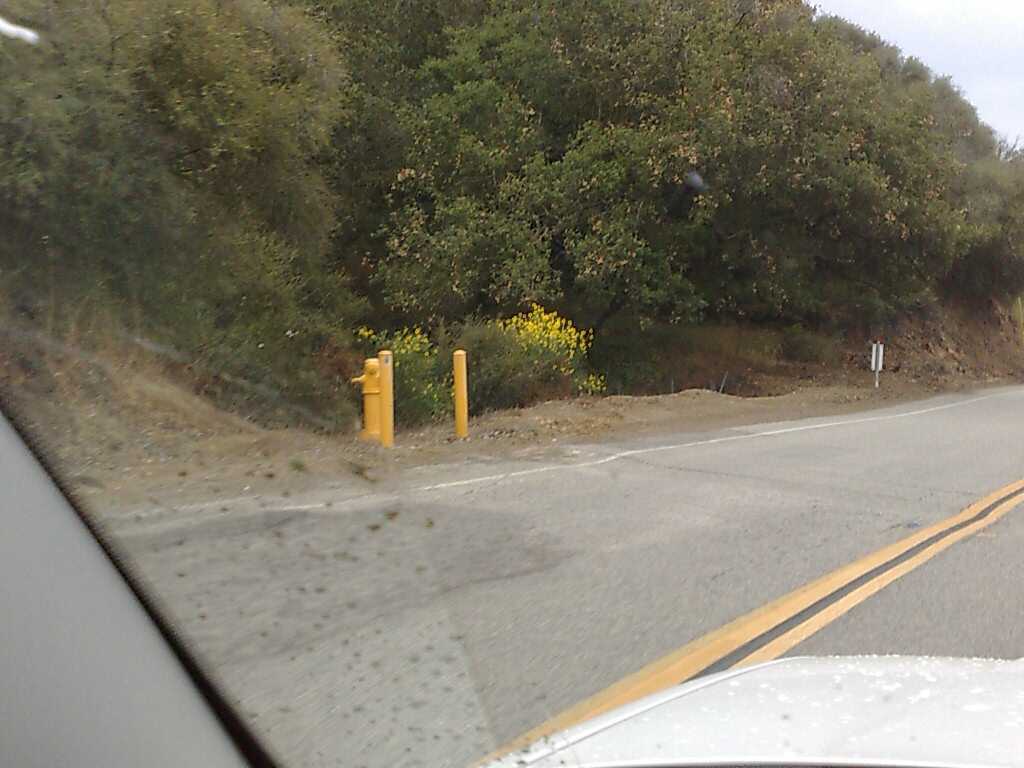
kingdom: Plantae
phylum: Tracheophyta
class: Magnoliopsida
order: Fabales
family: Fabaceae
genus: Spartium
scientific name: Spartium junceum
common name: Spanish broom
